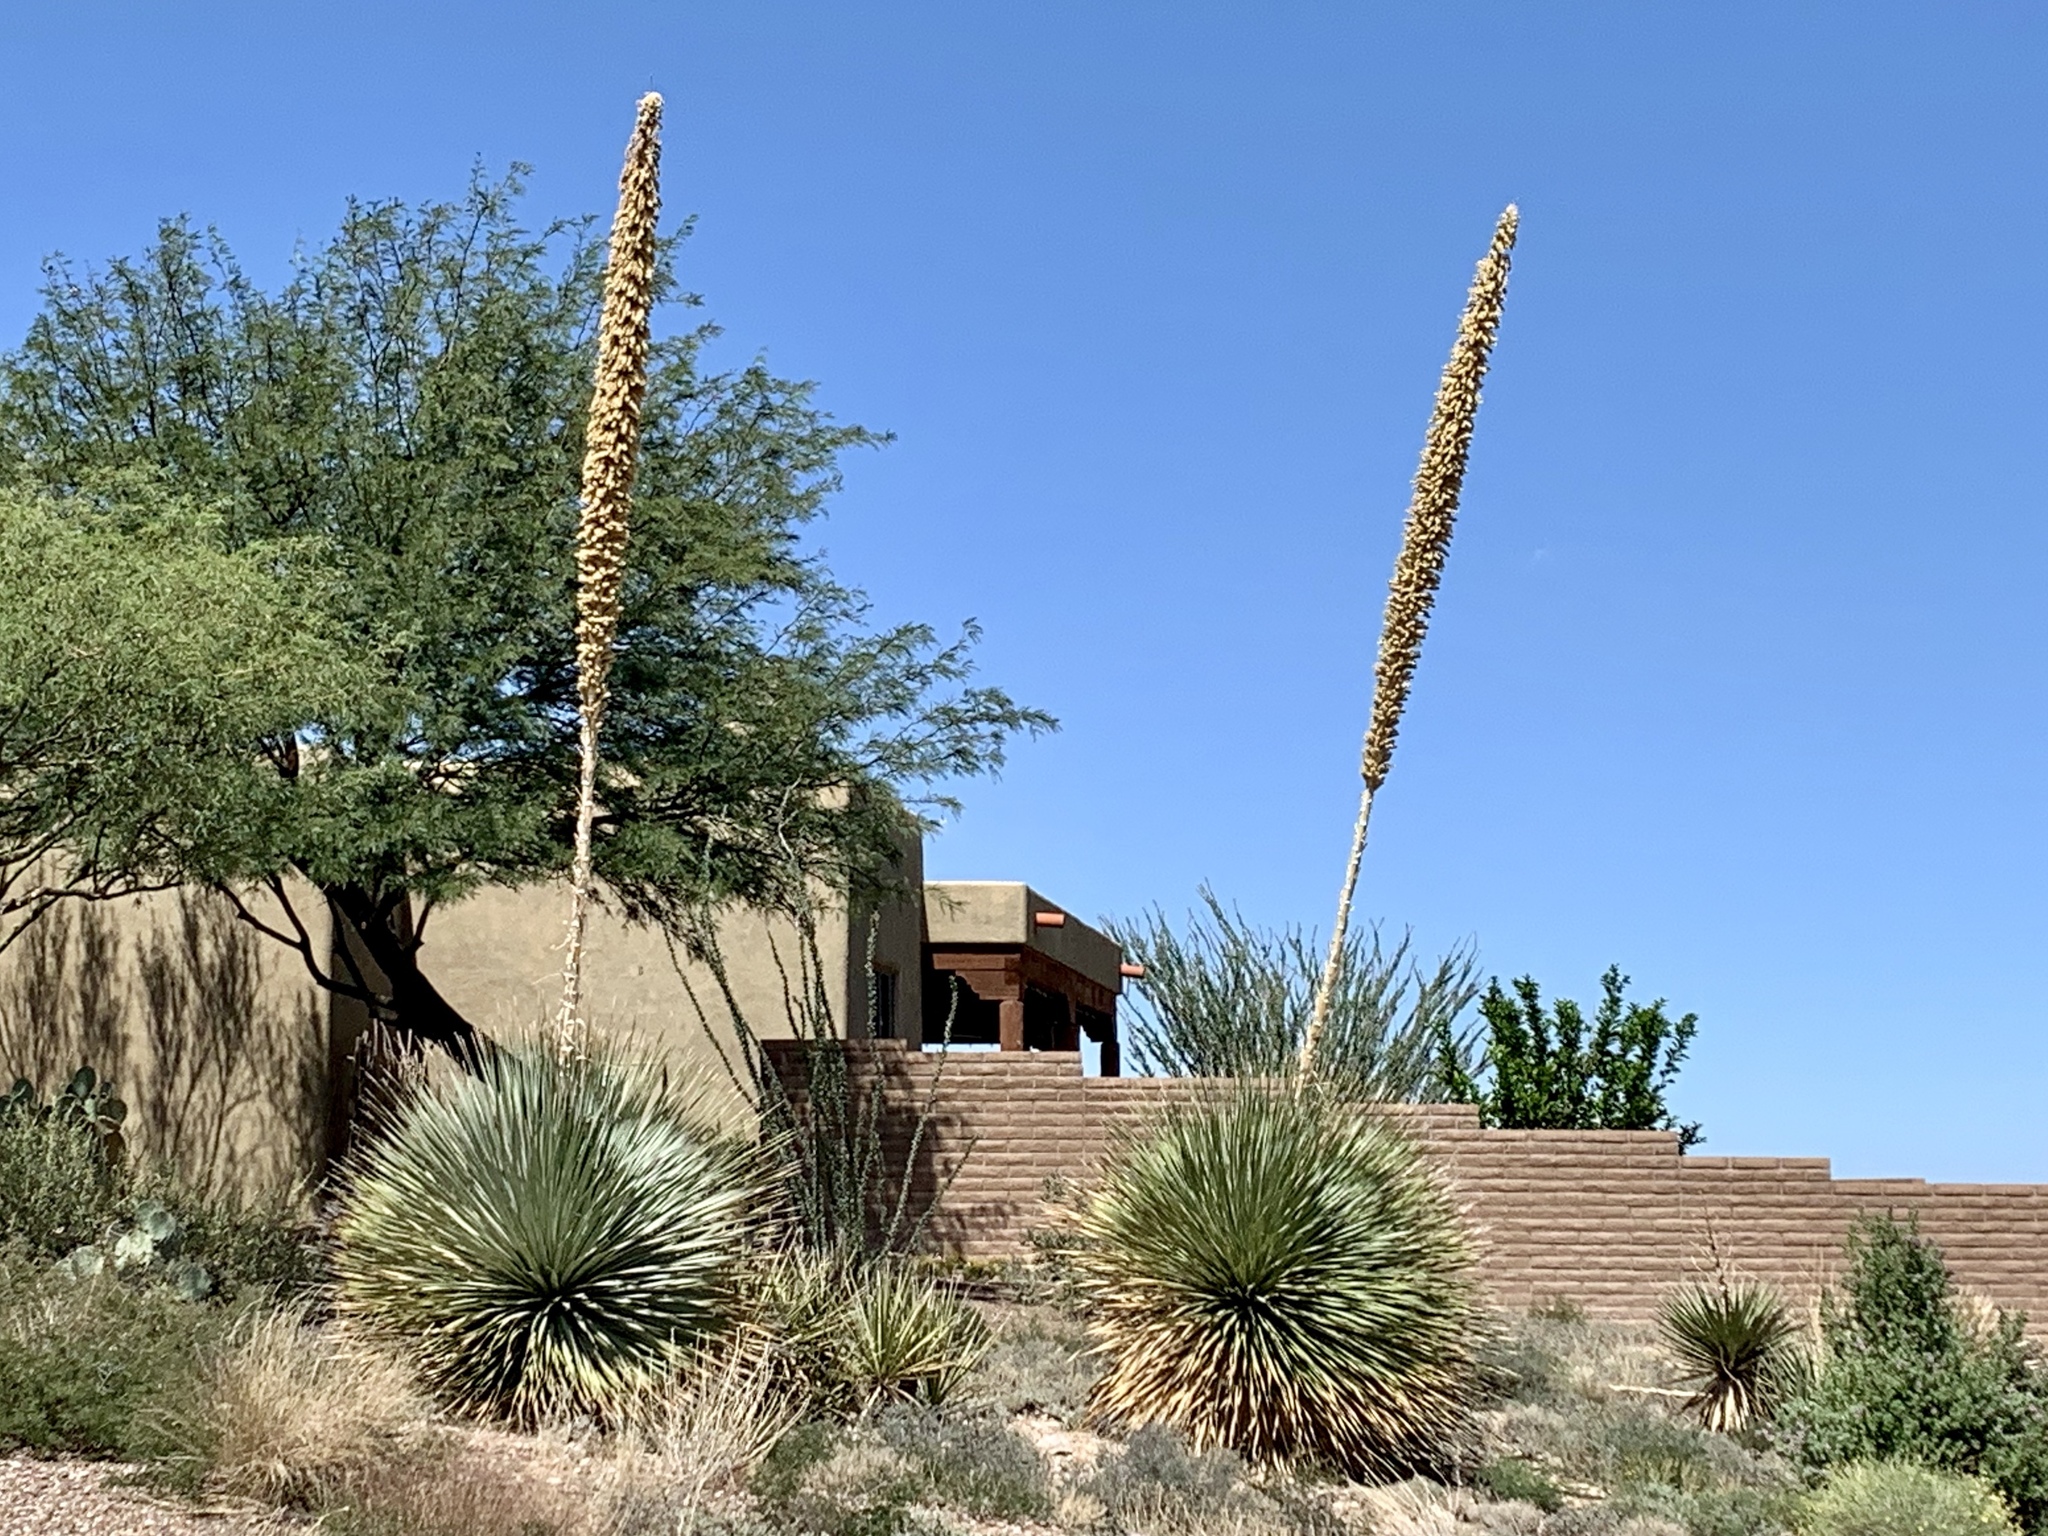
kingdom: Plantae
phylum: Tracheophyta
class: Liliopsida
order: Asparagales
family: Asparagaceae
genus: Dasylirion
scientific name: Dasylirion wheeleri
